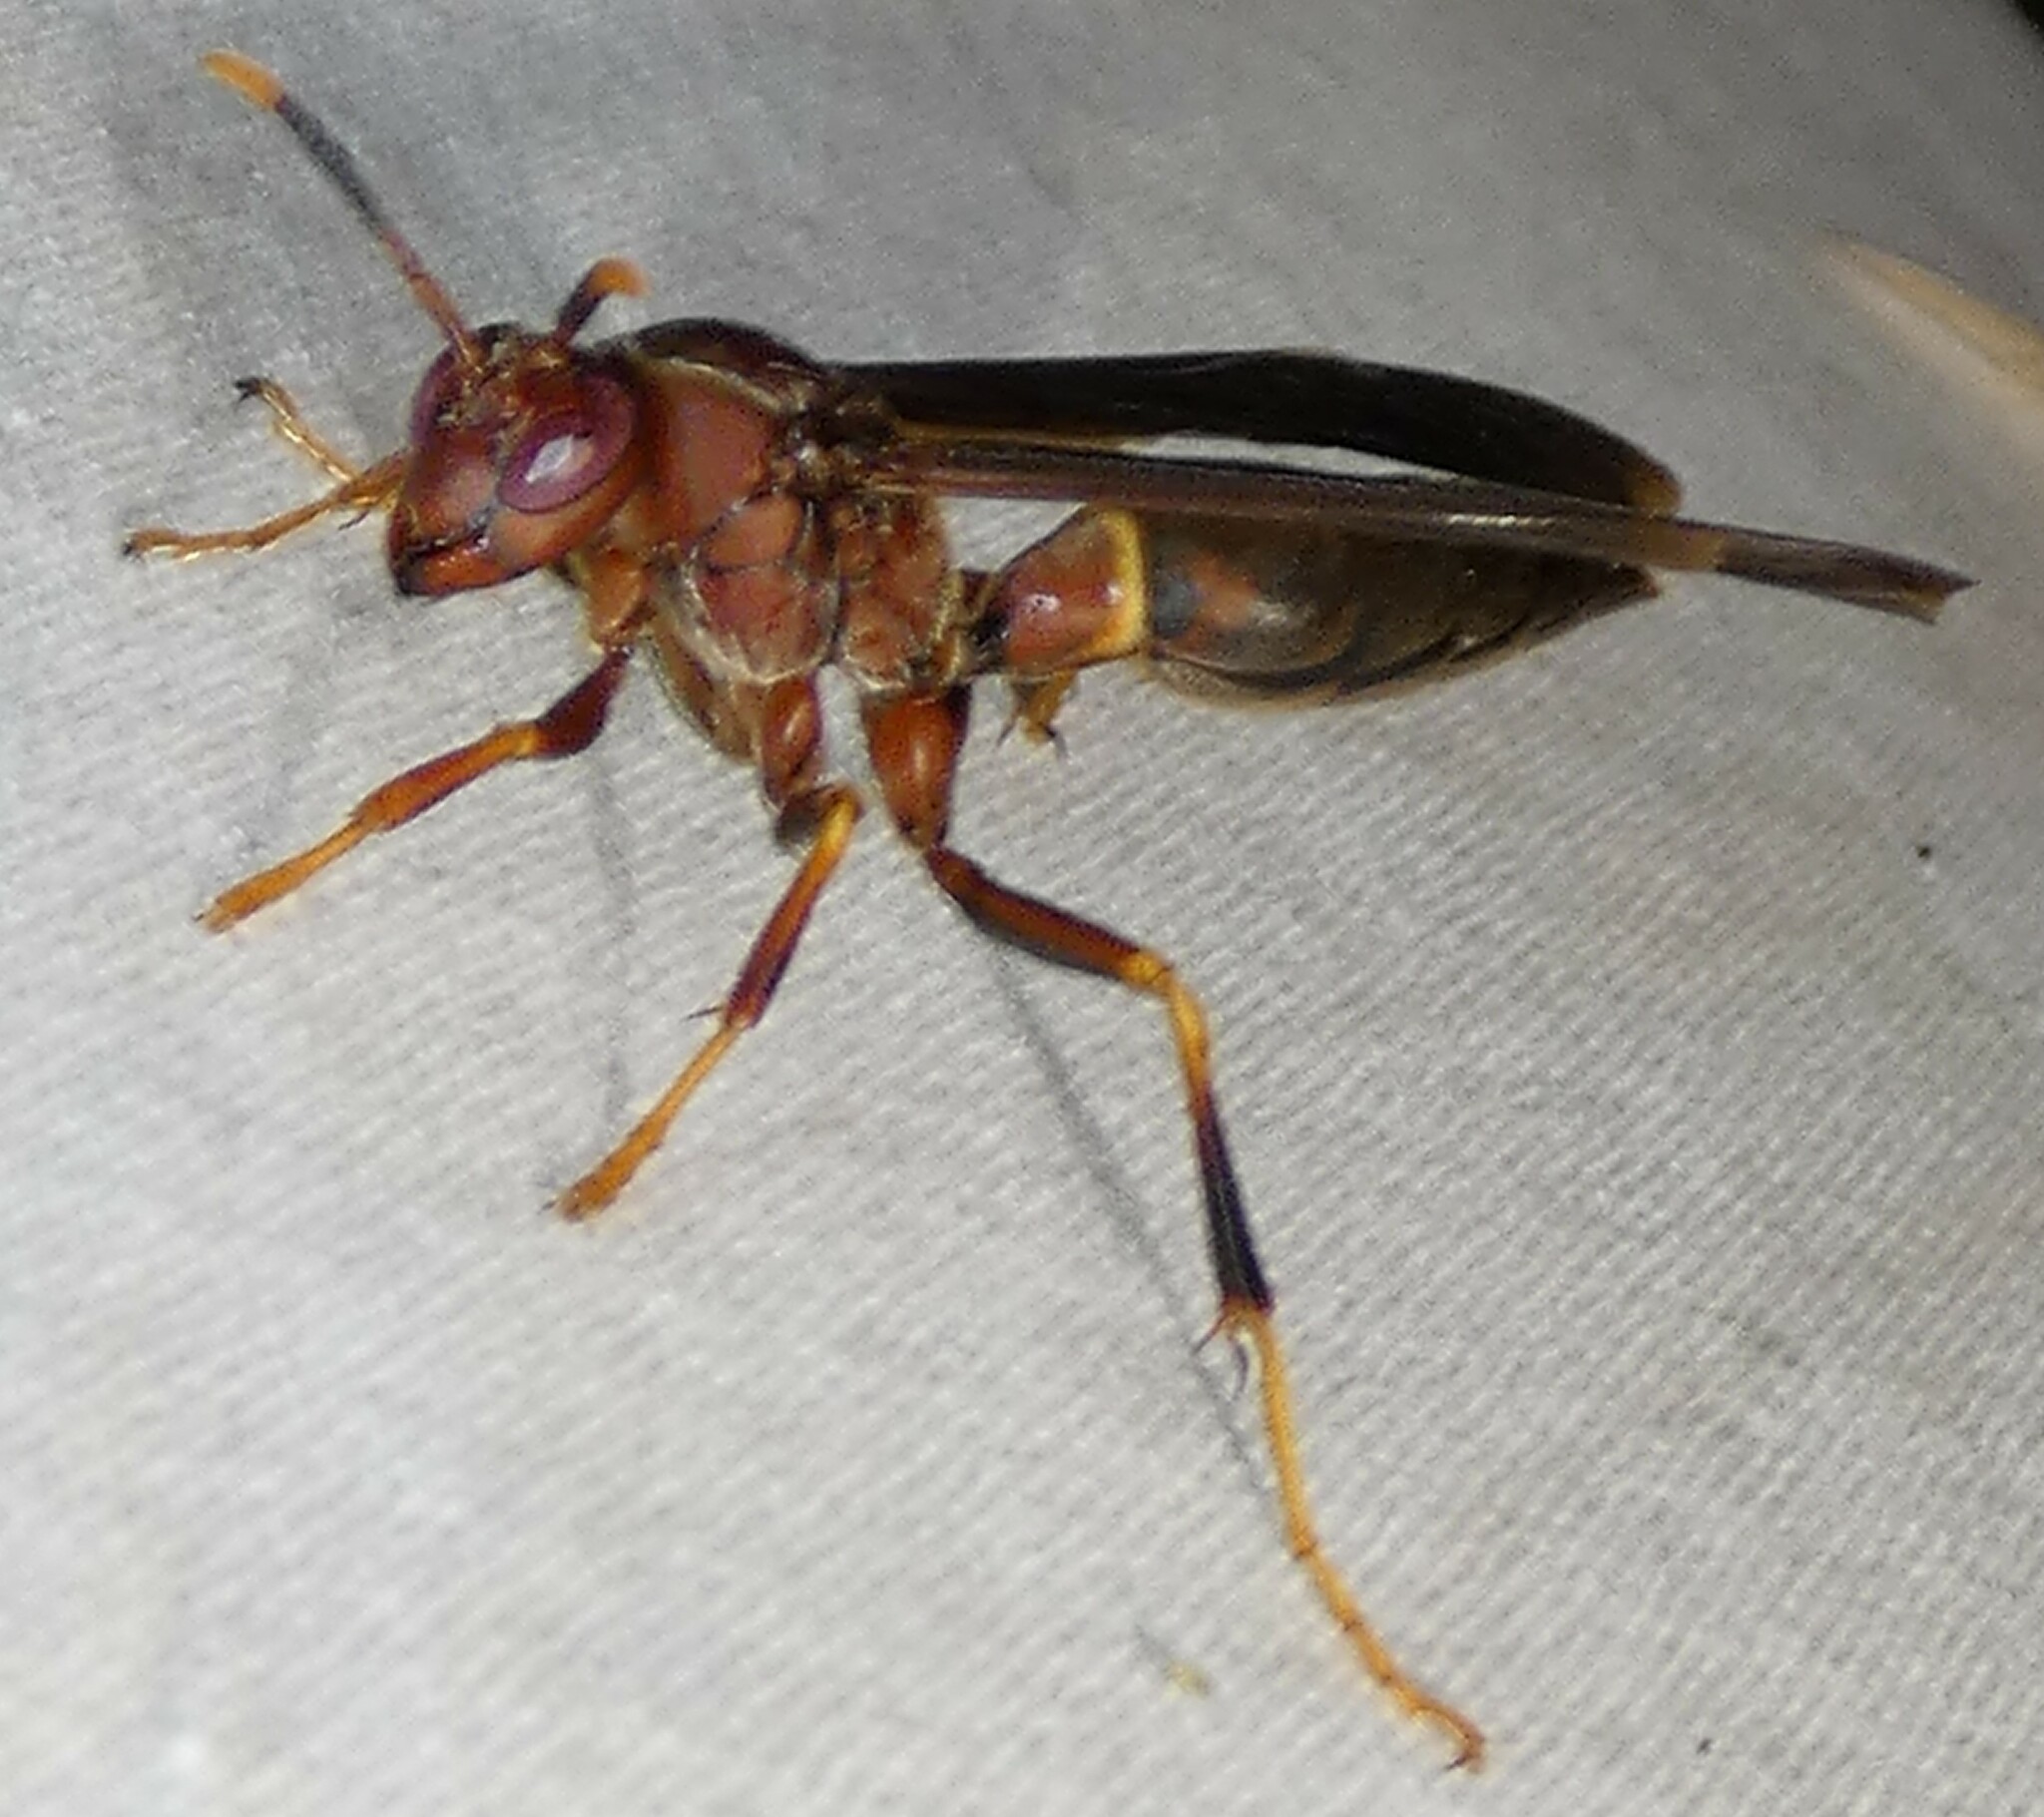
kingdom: Animalia
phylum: Arthropoda
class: Insecta
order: Hymenoptera
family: Eumenidae
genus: Polistes
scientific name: Polistes annularis
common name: Ringed paper wasp
